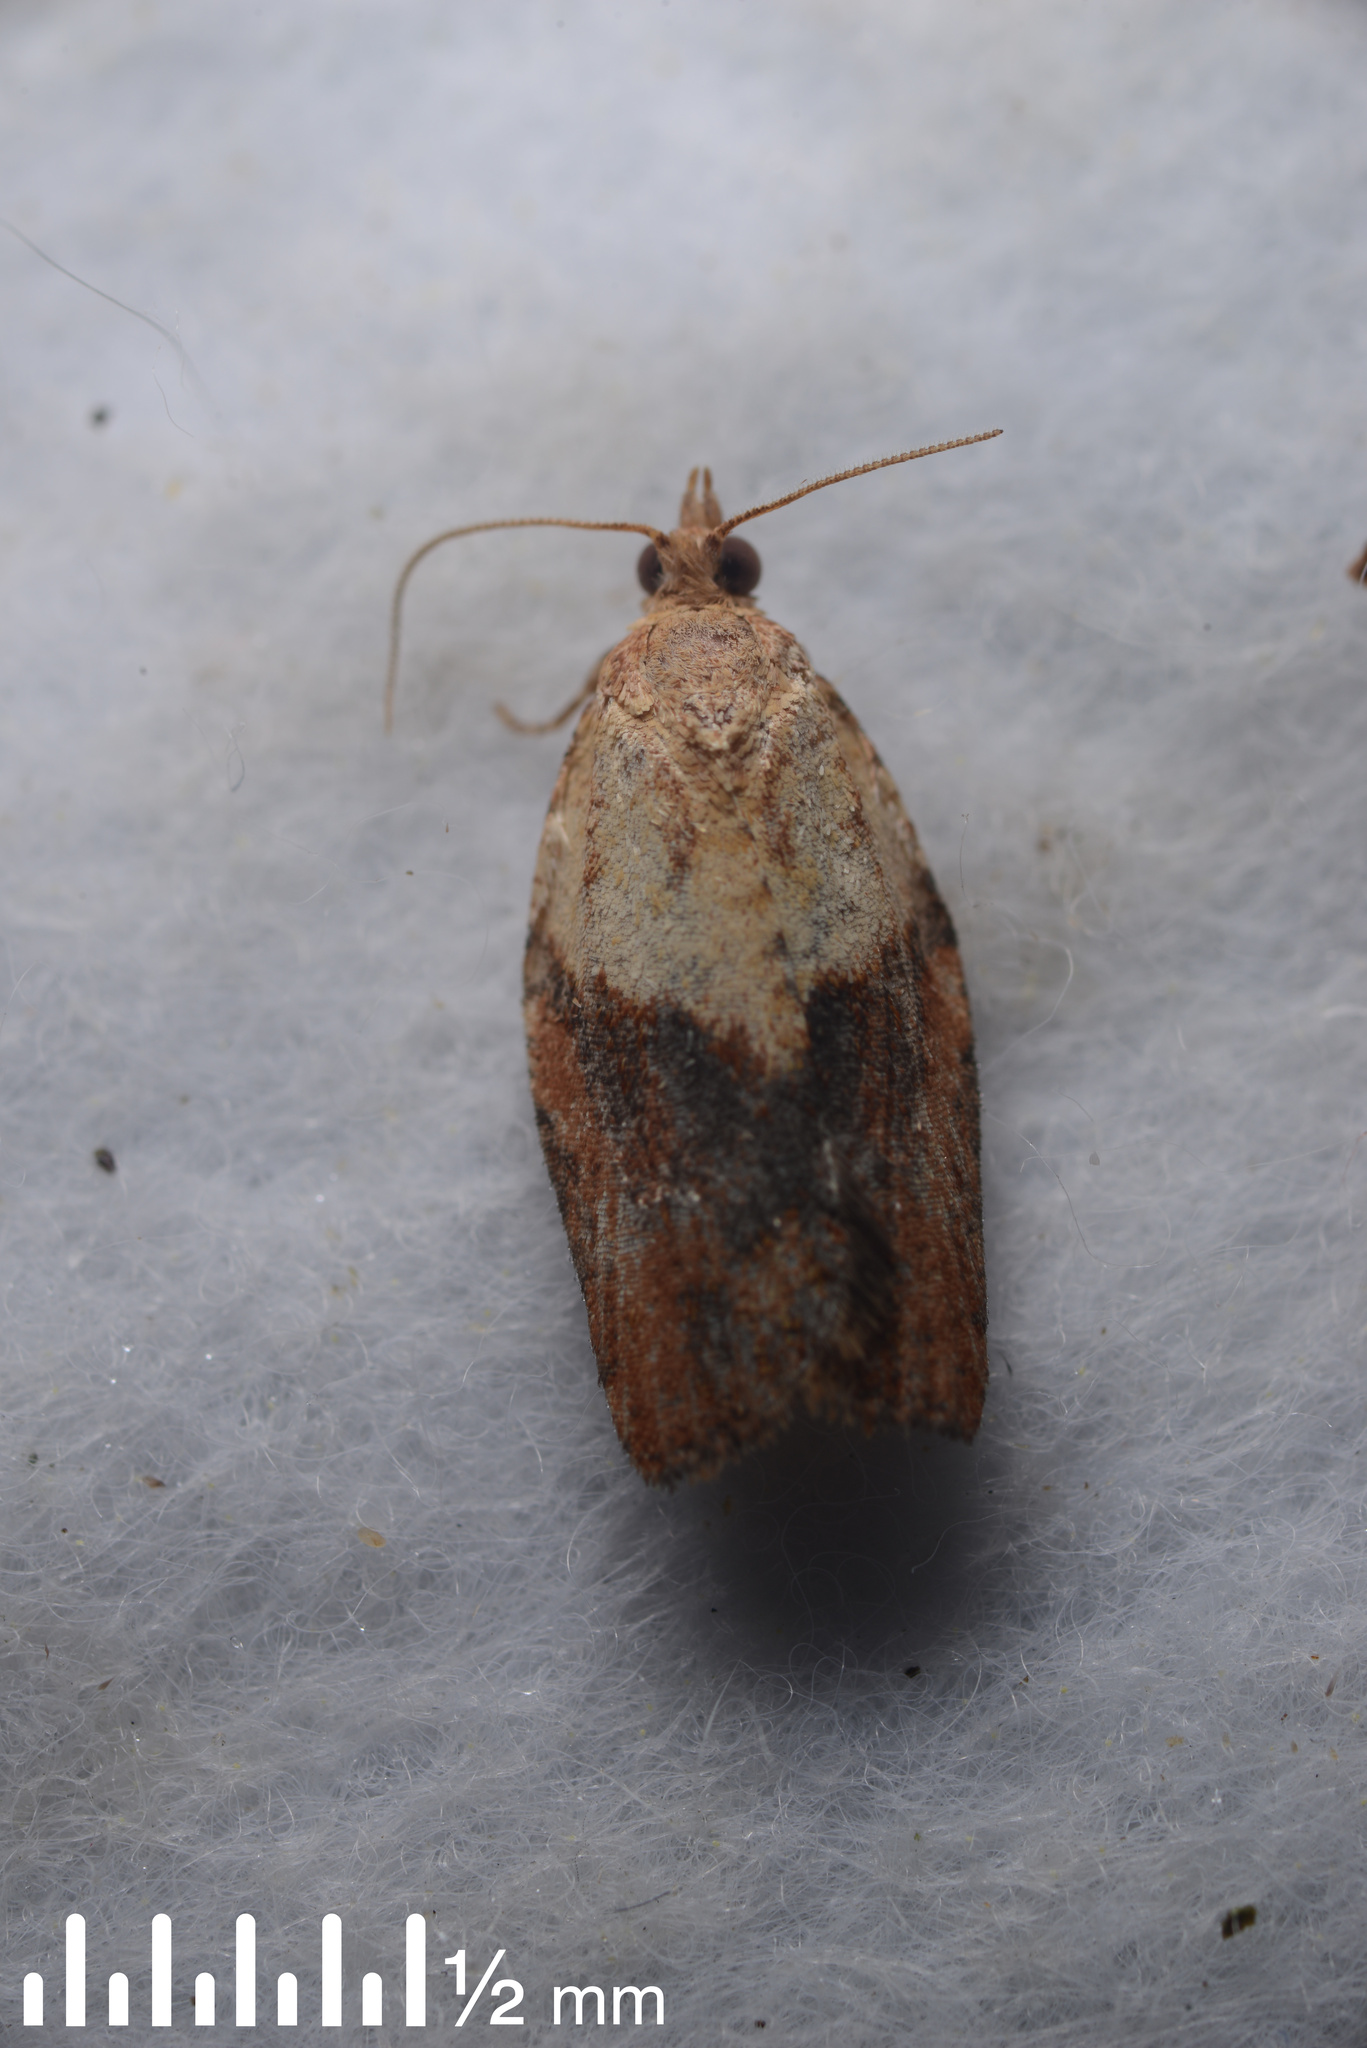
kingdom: Animalia
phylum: Arthropoda
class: Insecta
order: Lepidoptera
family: Tortricidae
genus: Epiphyas
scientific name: Epiphyas postvittana
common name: Light brown apple moth
